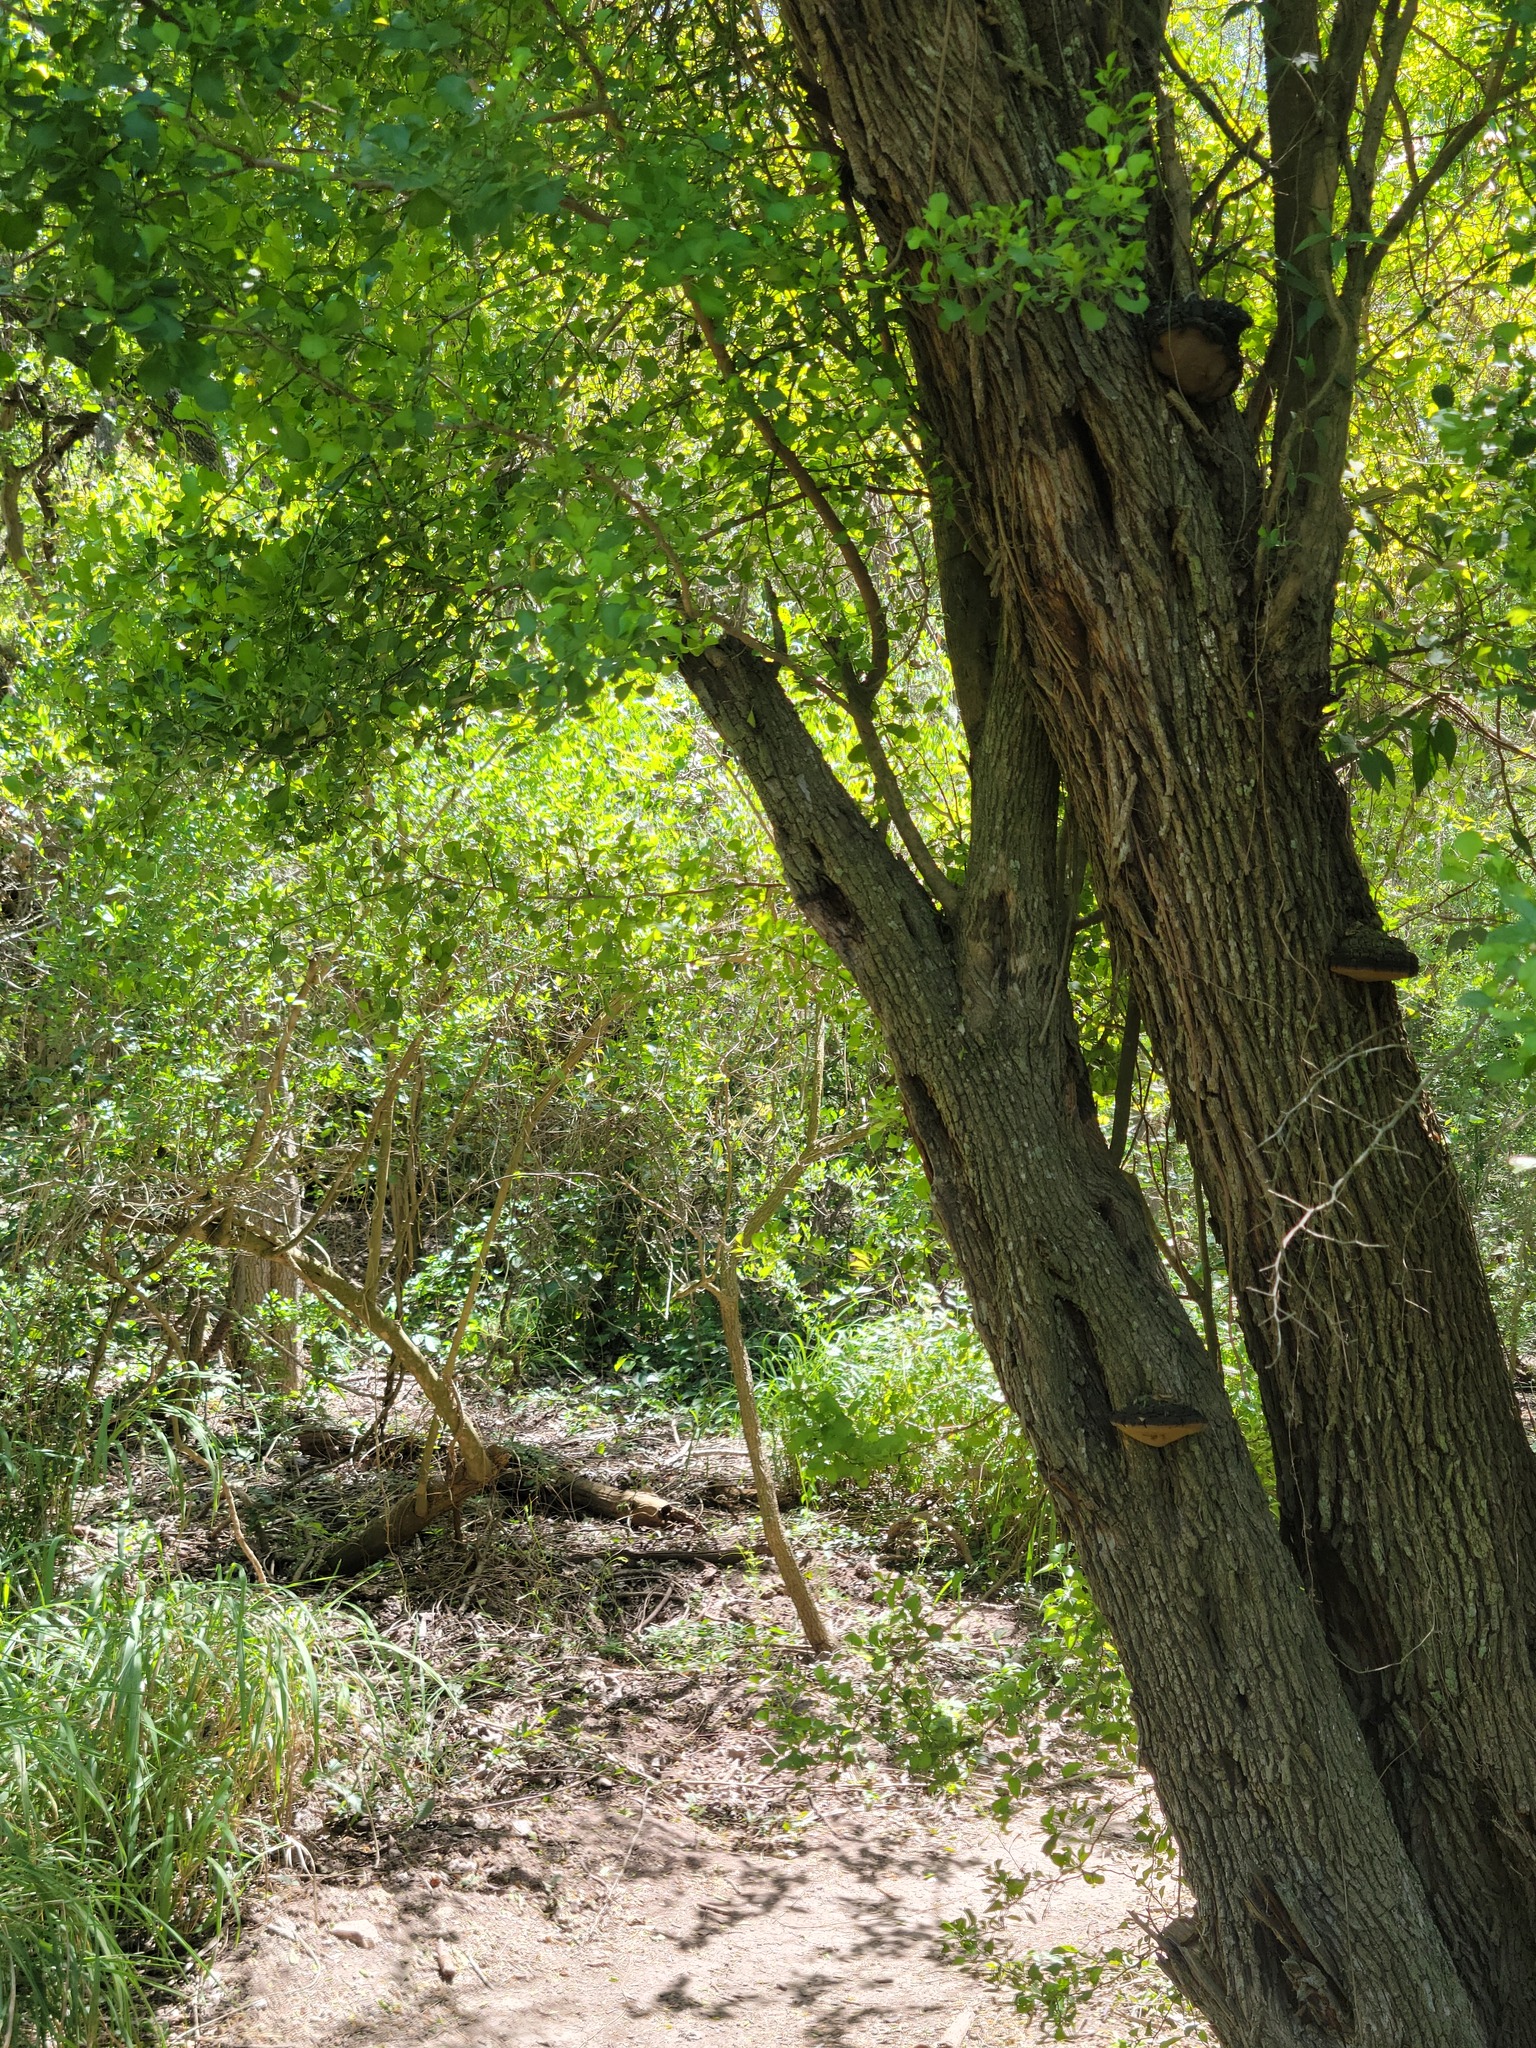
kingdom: Plantae
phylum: Tracheophyta
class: Magnoliopsida
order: Rosales
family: Rhamnaceae
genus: Condalia
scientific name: Condalia hookeri
